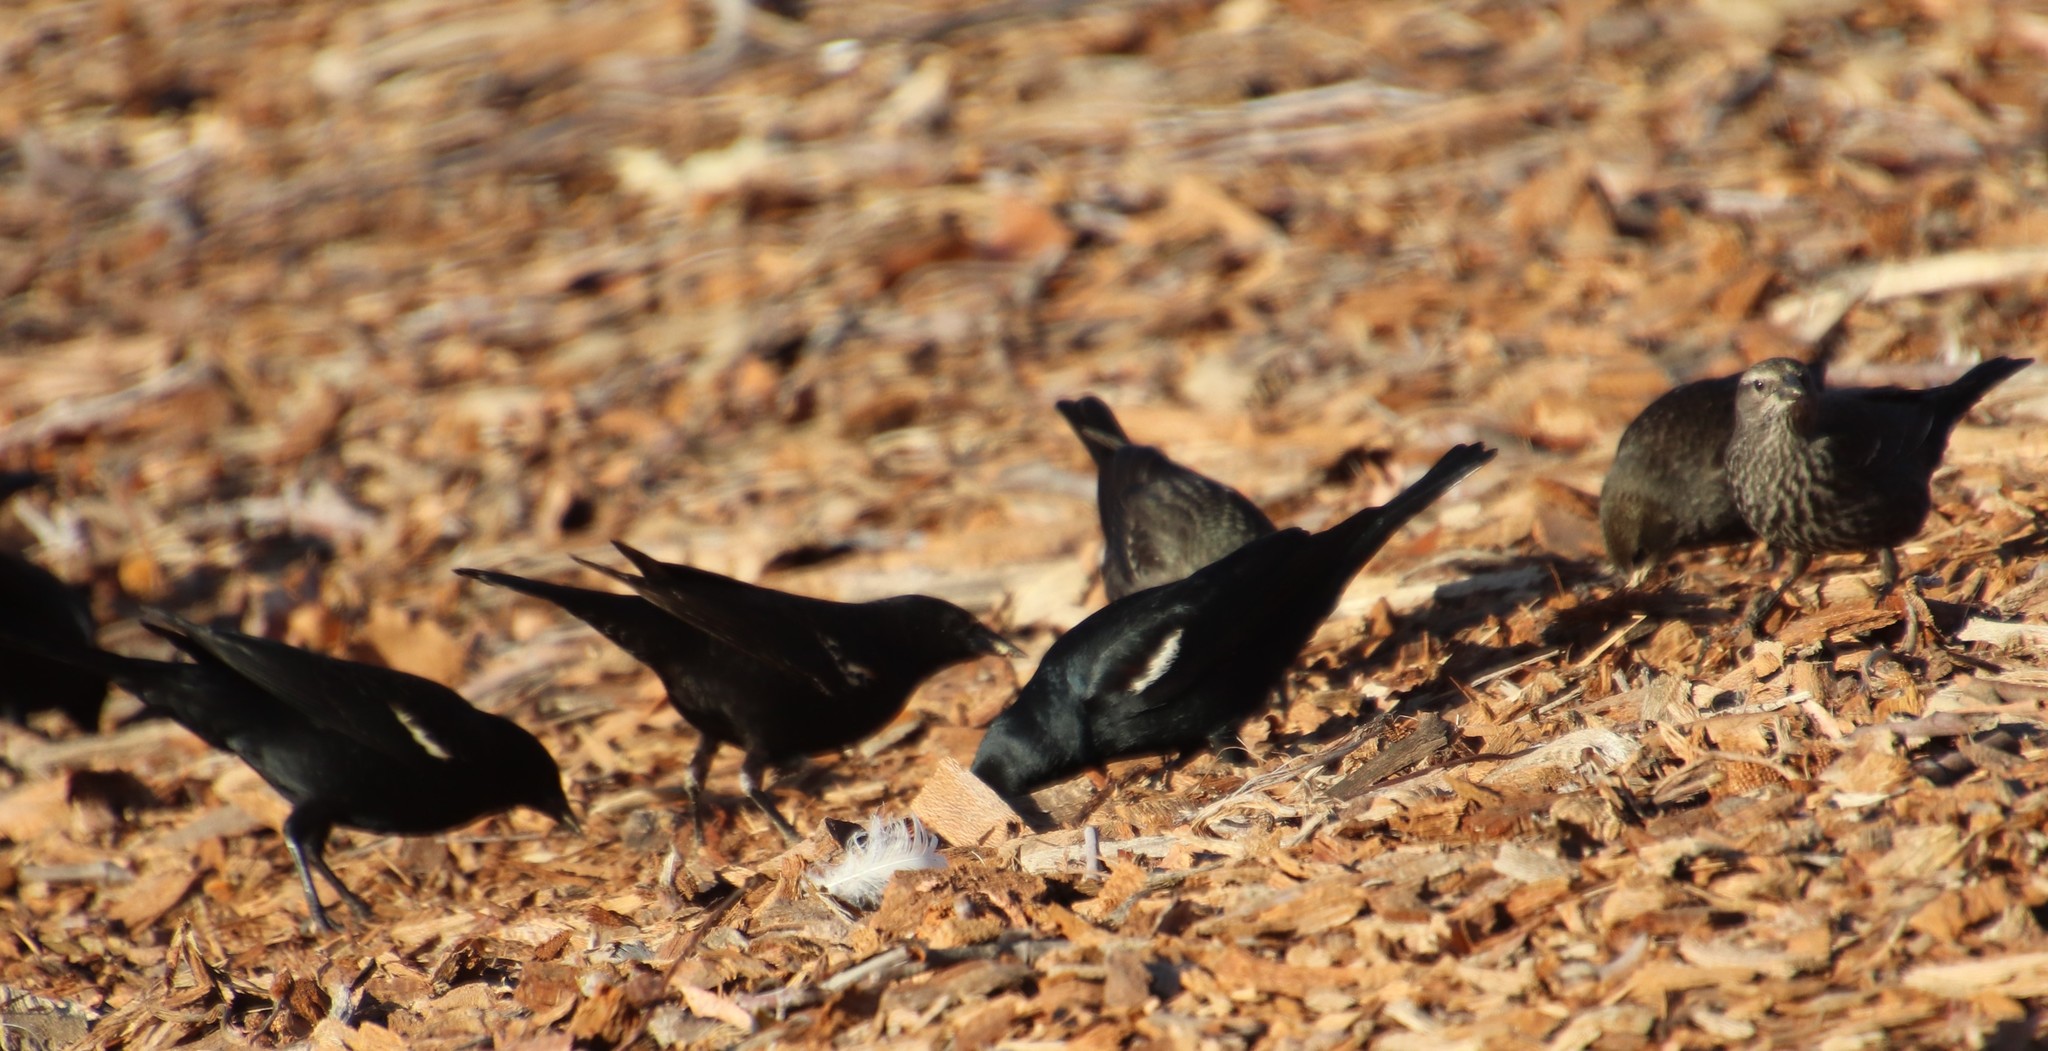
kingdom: Animalia
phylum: Chordata
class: Aves
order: Passeriformes
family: Icteridae
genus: Agelaius
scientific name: Agelaius tricolor
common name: Tricolored blackbird
